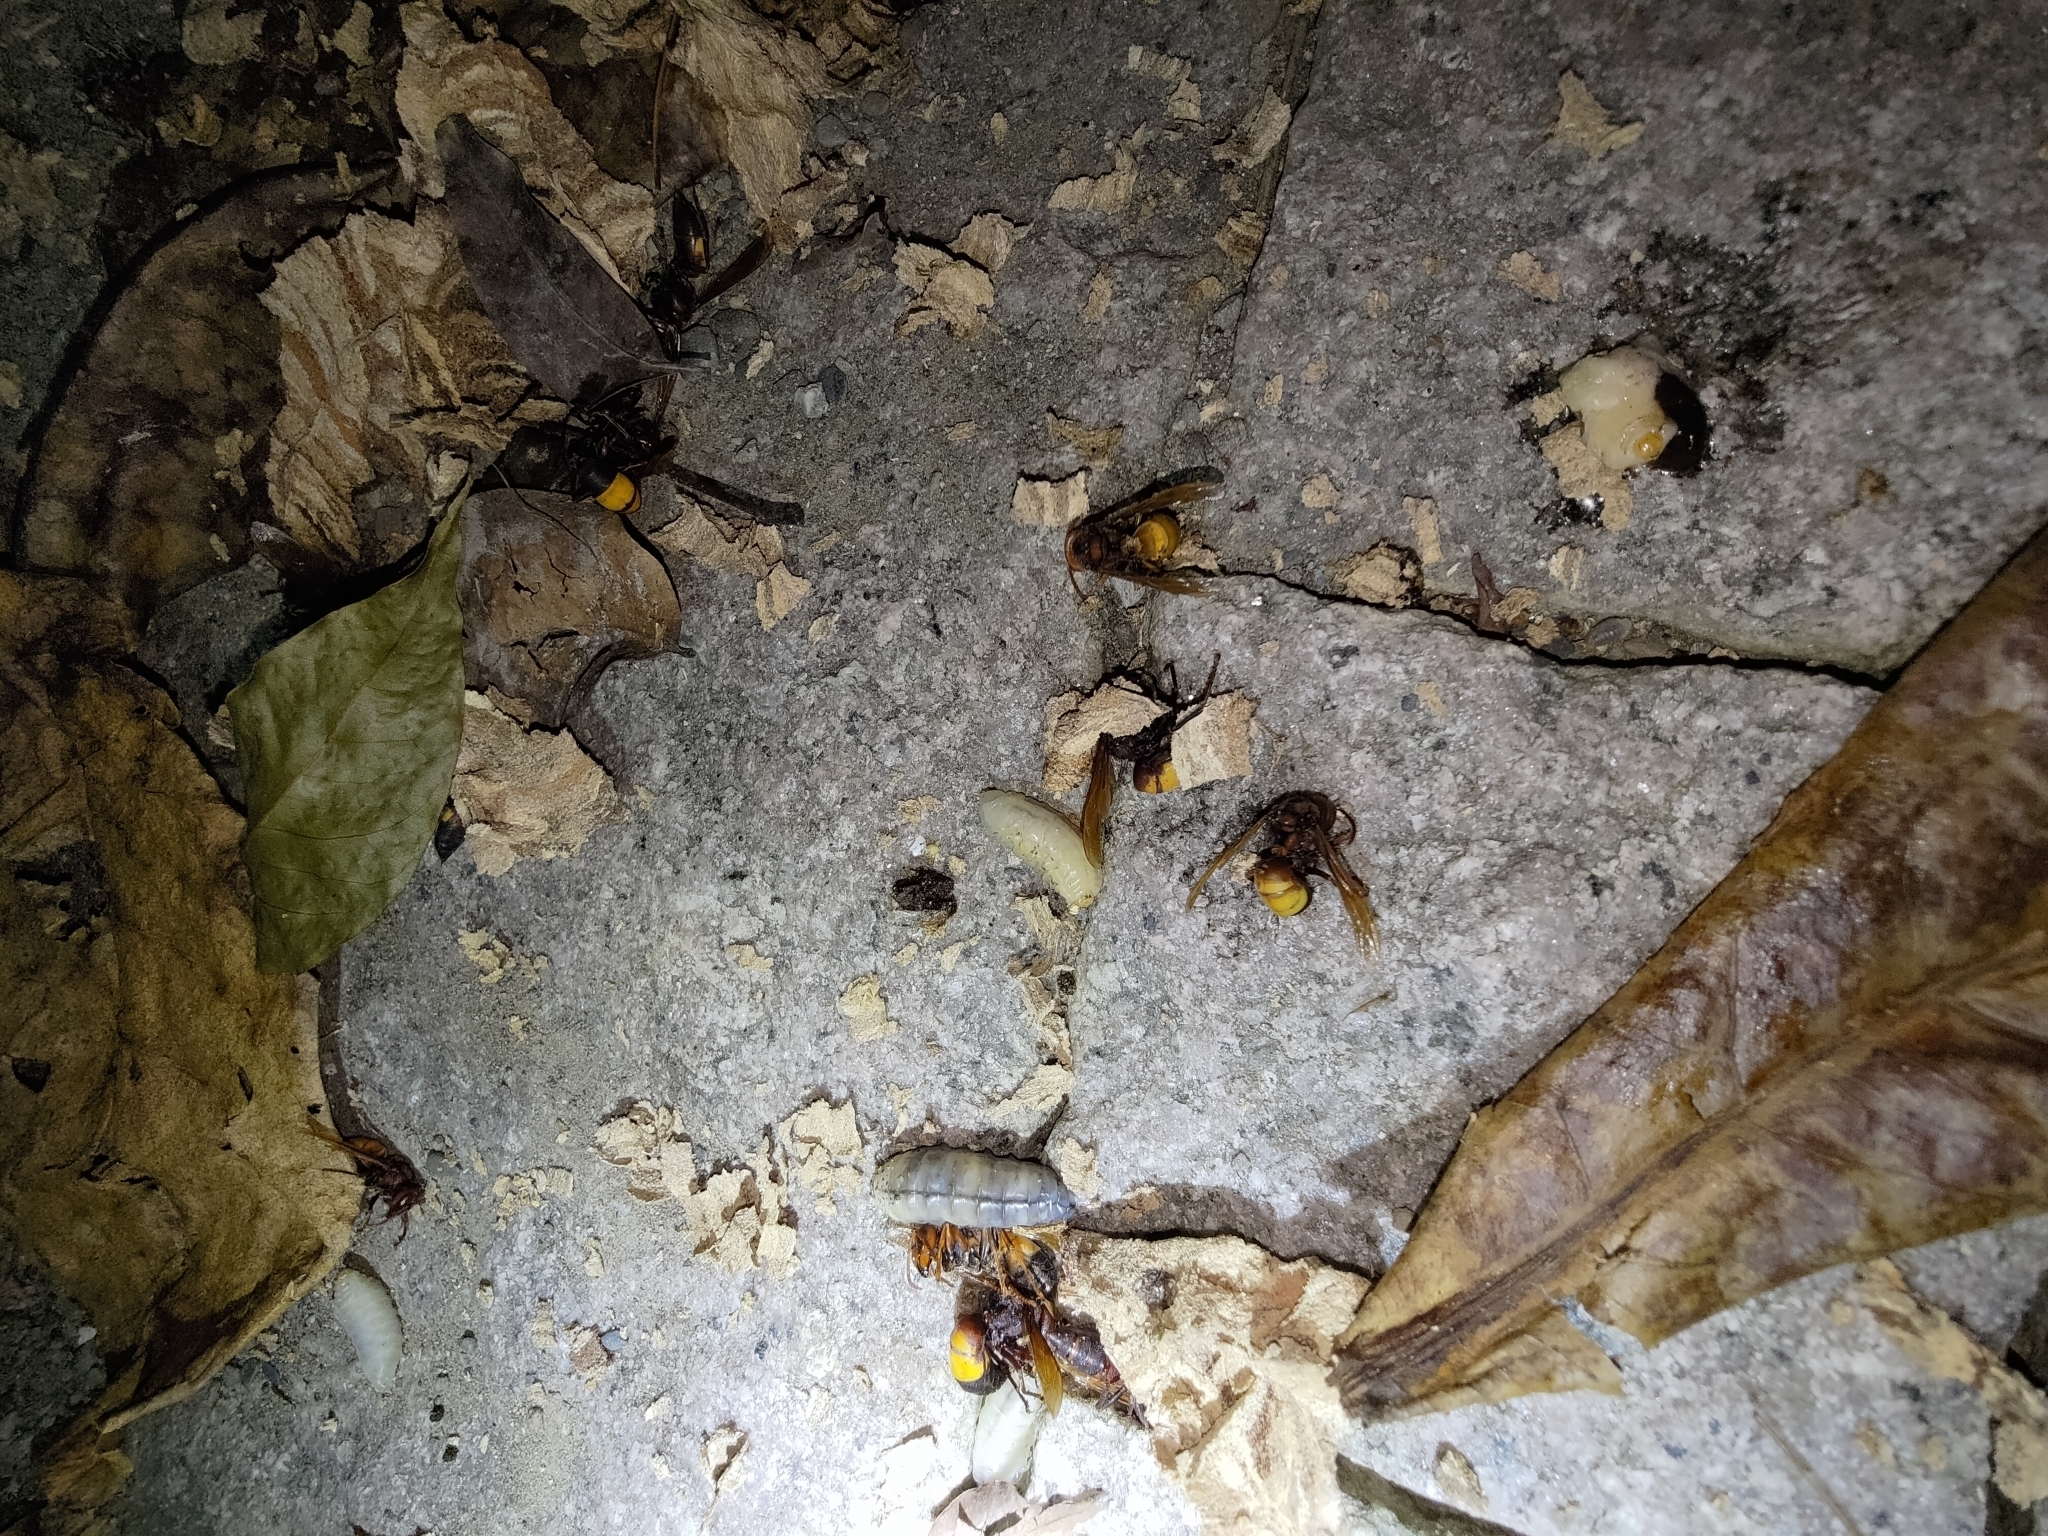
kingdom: Animalia
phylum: Arthropoda
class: Insecta
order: Hymenoptera
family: Vespidae
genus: Vespa
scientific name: Vespa affinis
